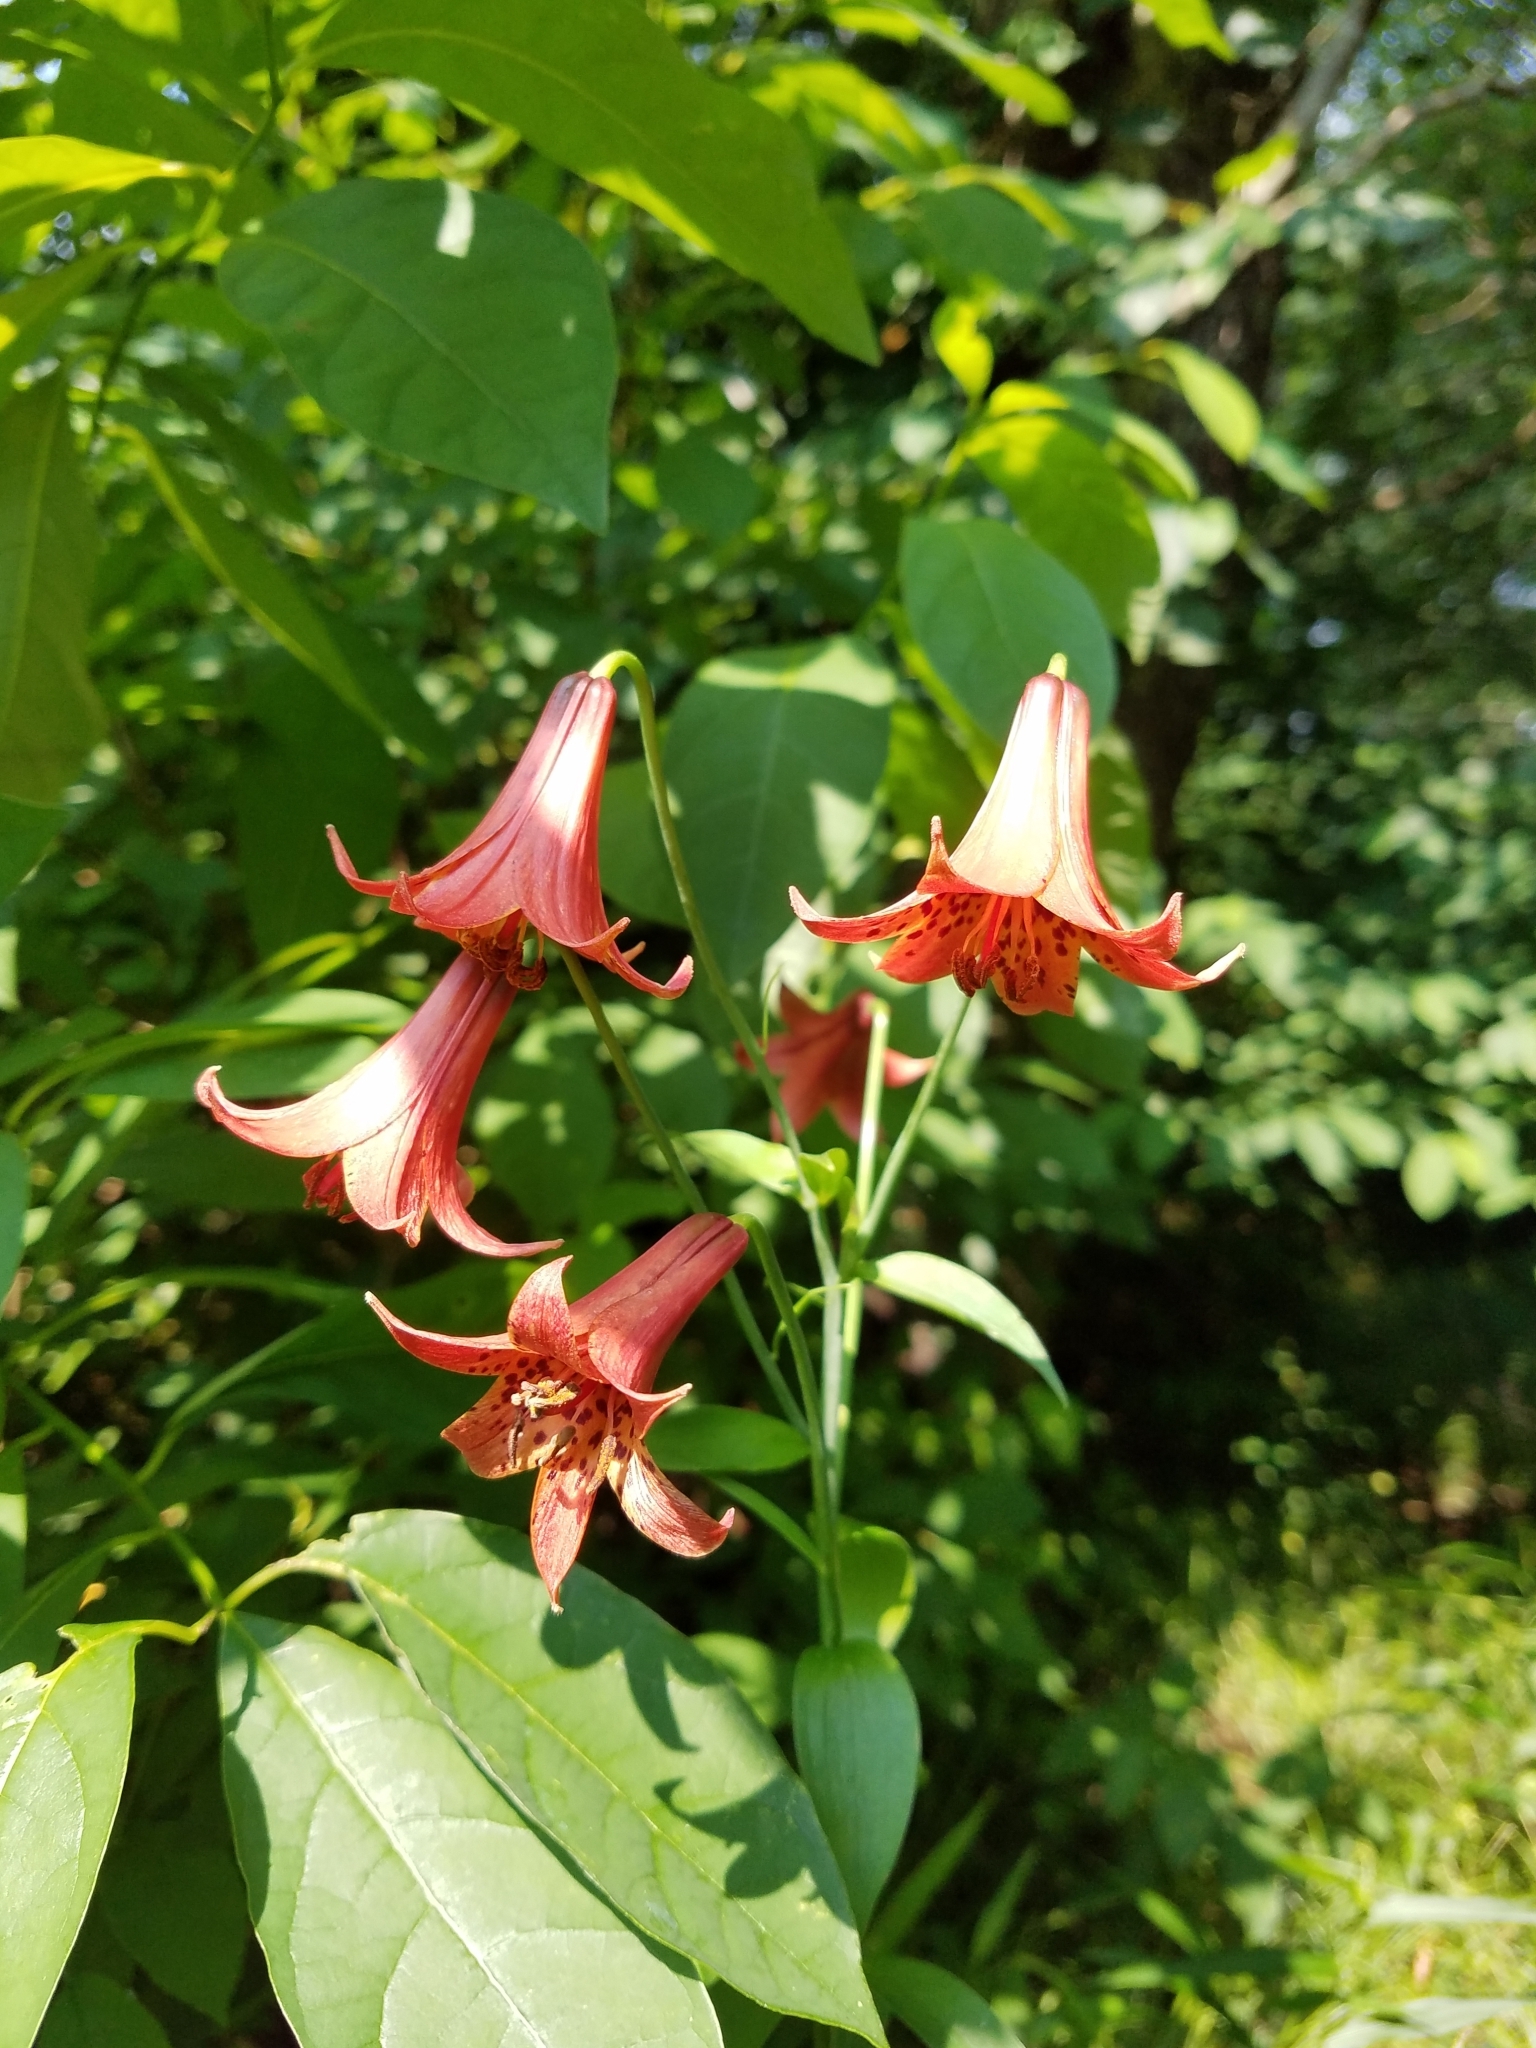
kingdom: Plantae
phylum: Tracheophyta
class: Liliopsida
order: Liliales
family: Liliaceae
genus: Lilium
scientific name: Lilium canadense
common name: Canada lily
